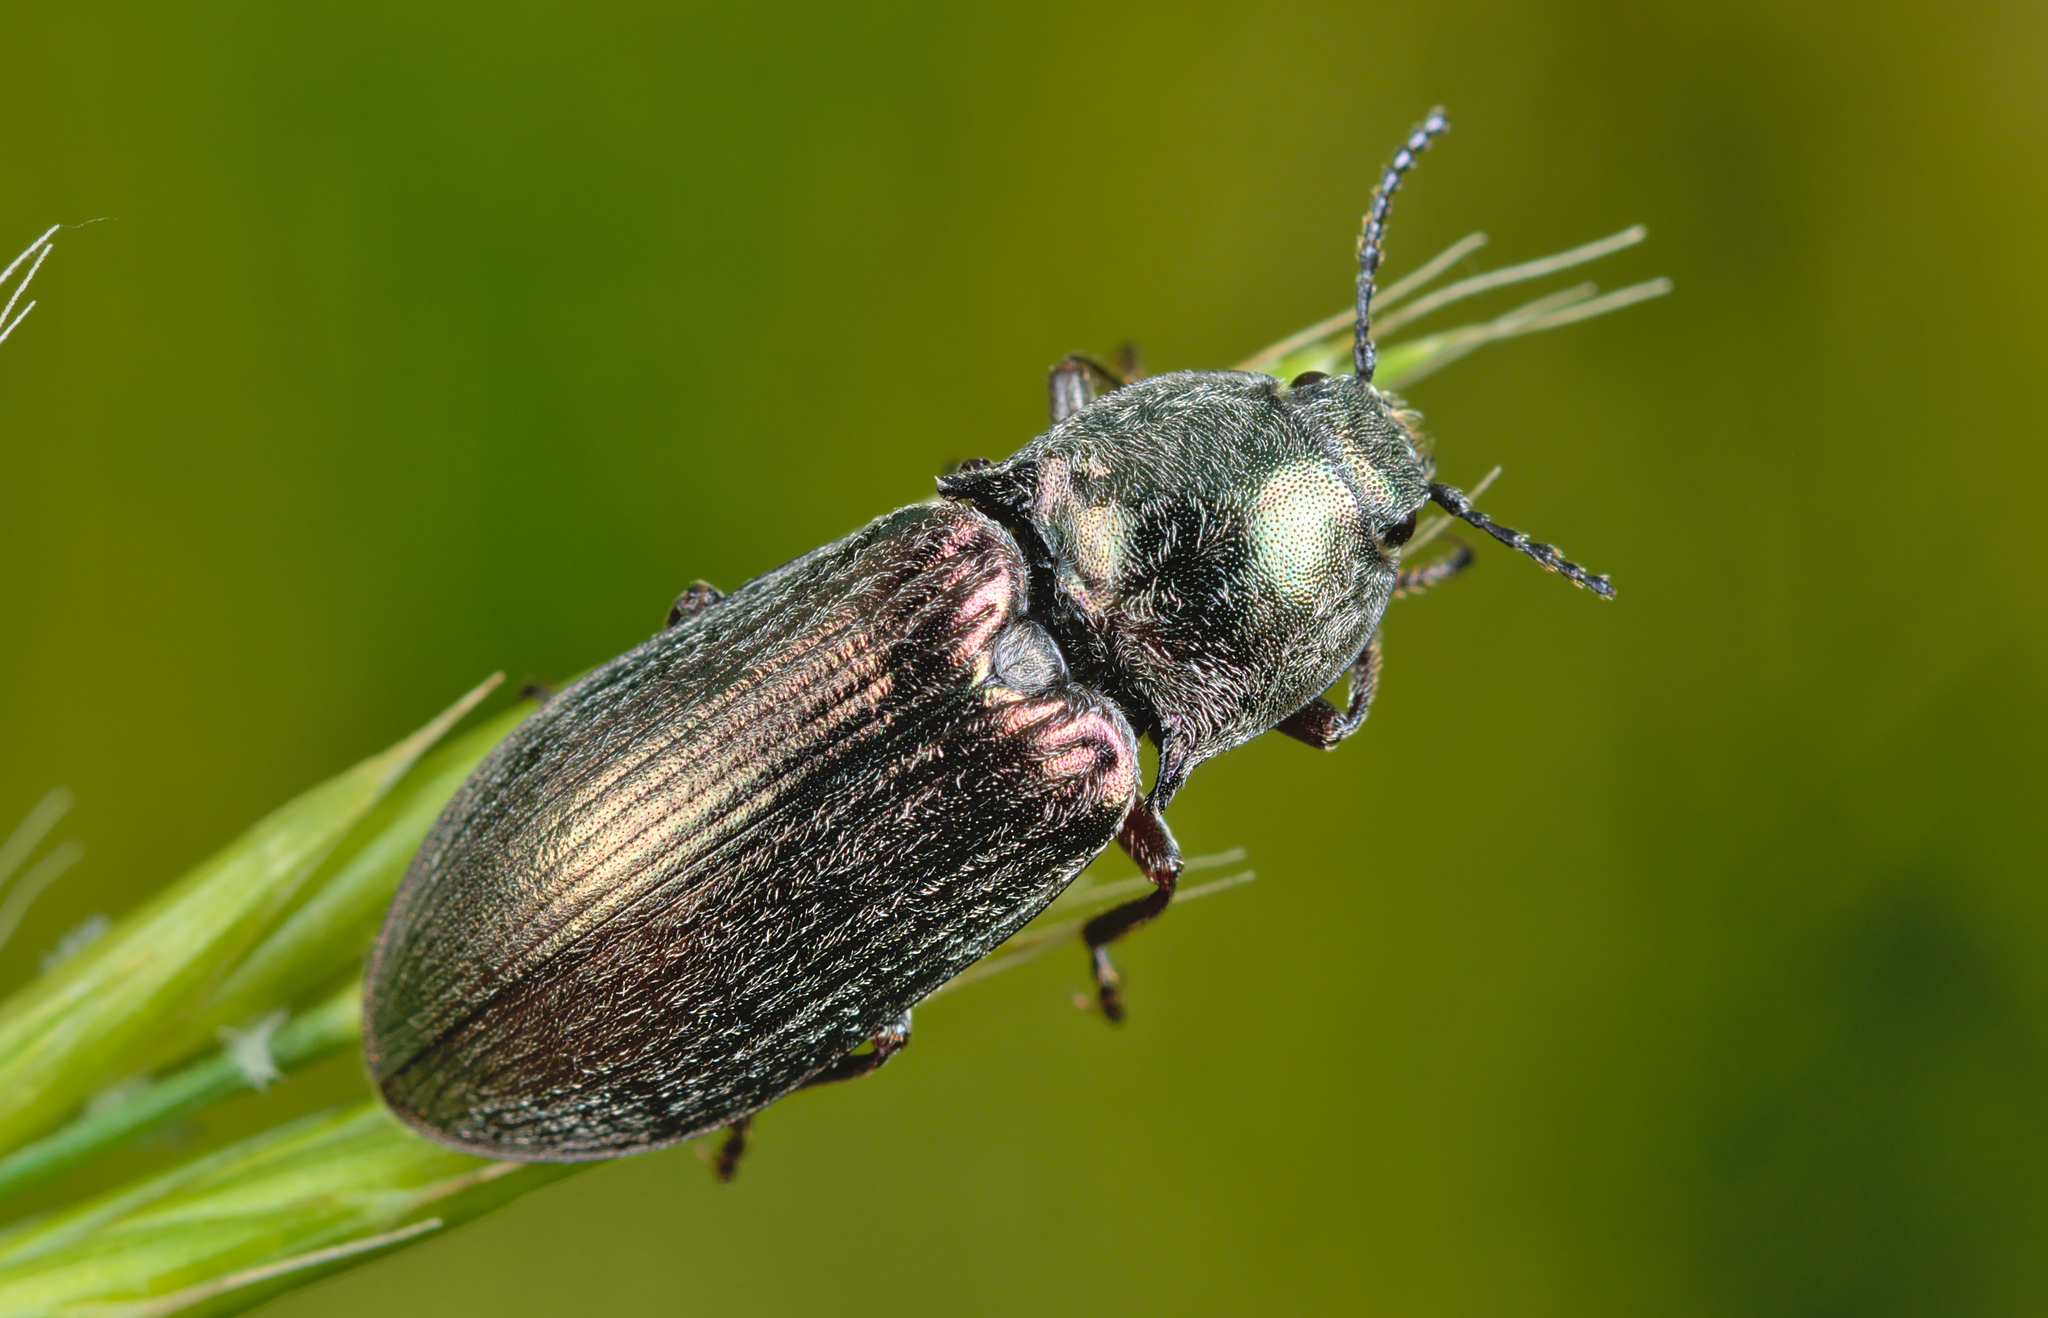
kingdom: Animalia
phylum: Arthropoda
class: Insecta
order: Coleoptera
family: Elateridae
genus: Selatosomus
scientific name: Selatosomus latus
